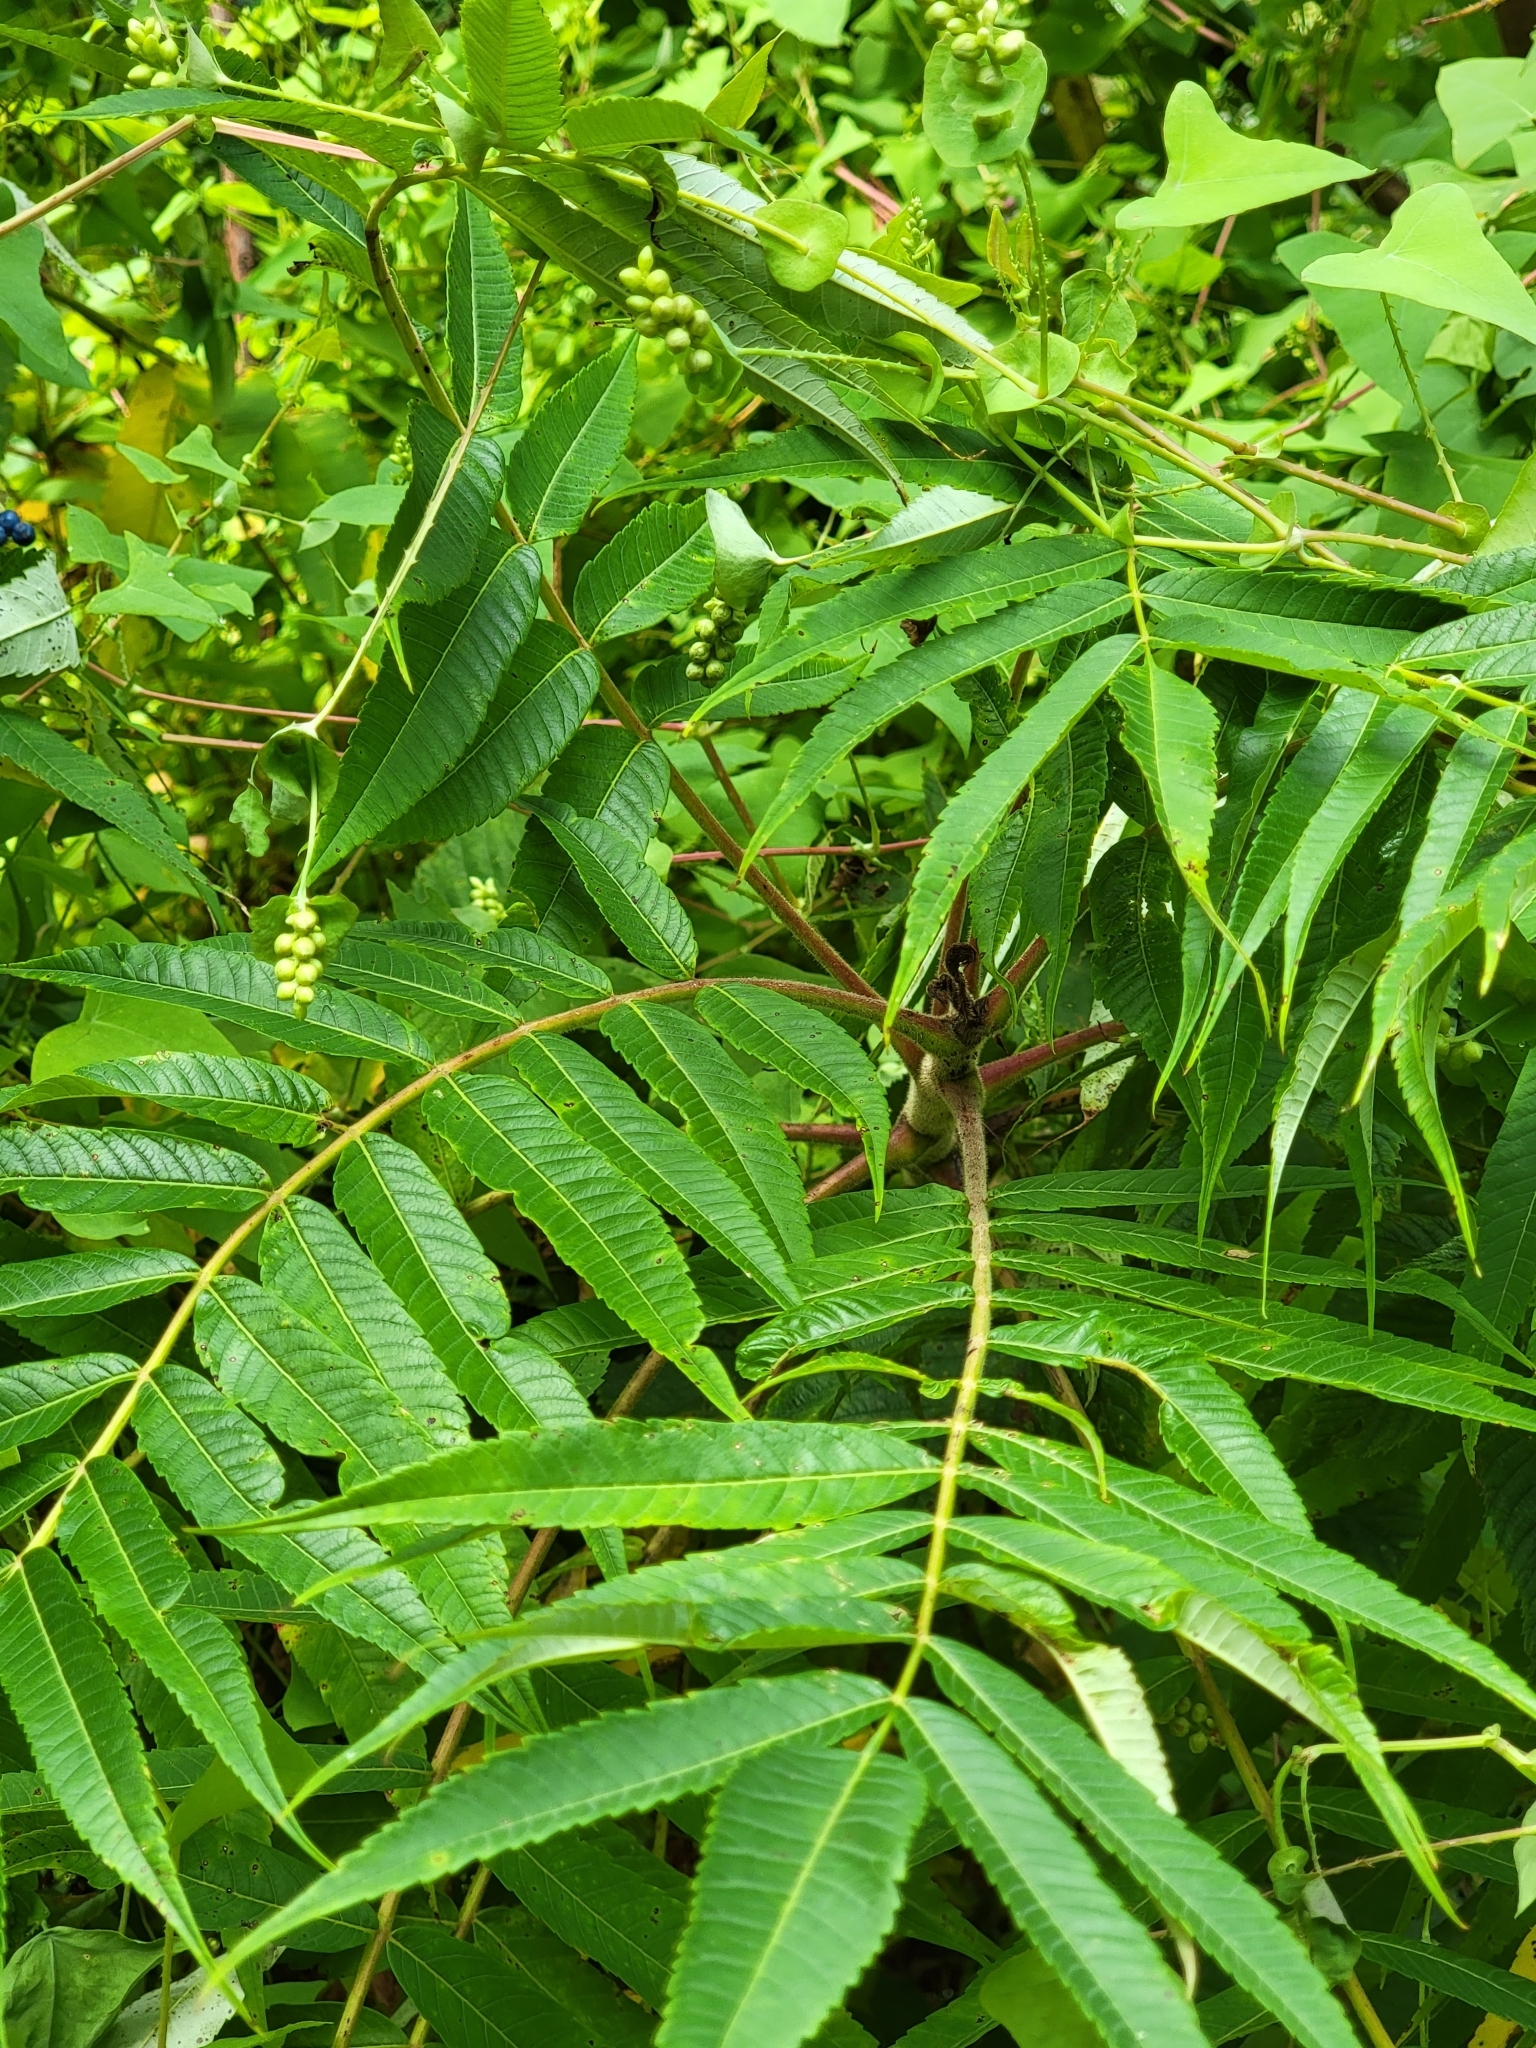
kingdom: Plantae
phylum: Tracheophyta
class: Magnoliopsida
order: Sapindales
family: Anacardiaceae
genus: Rhus
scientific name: Rhus typhina
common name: Staghorn sumac
